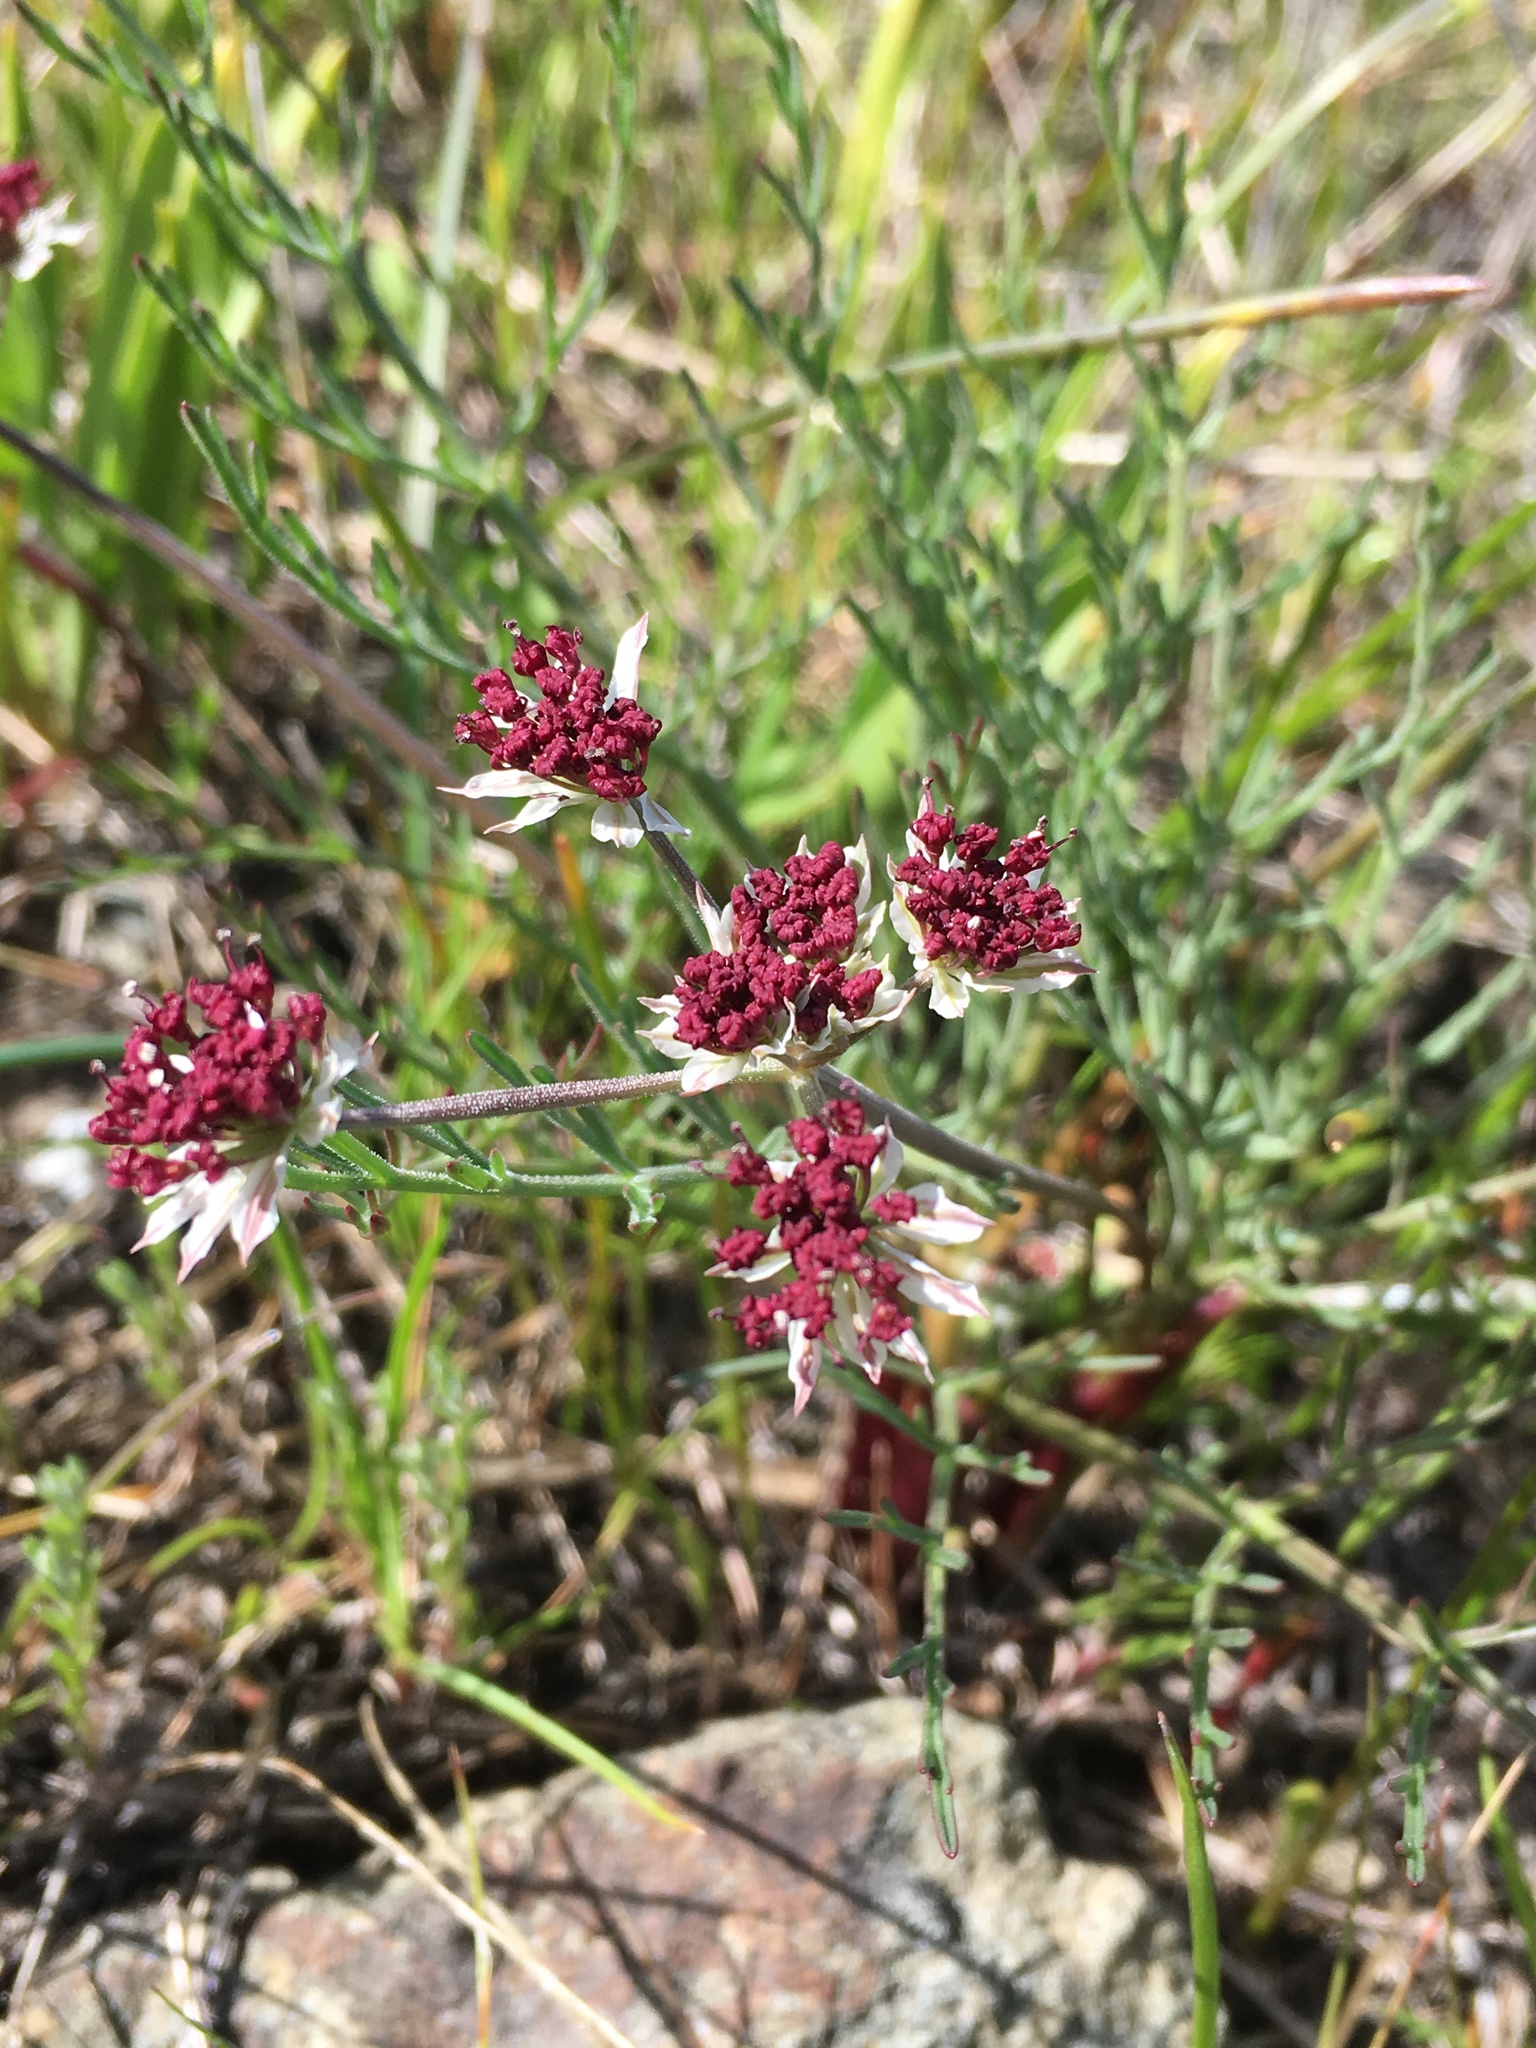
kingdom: Plantae
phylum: Tracheophyta
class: Magnoliopsida
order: Apiales
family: Apiaceae
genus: Lomatium
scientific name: Lomatium hooveri
